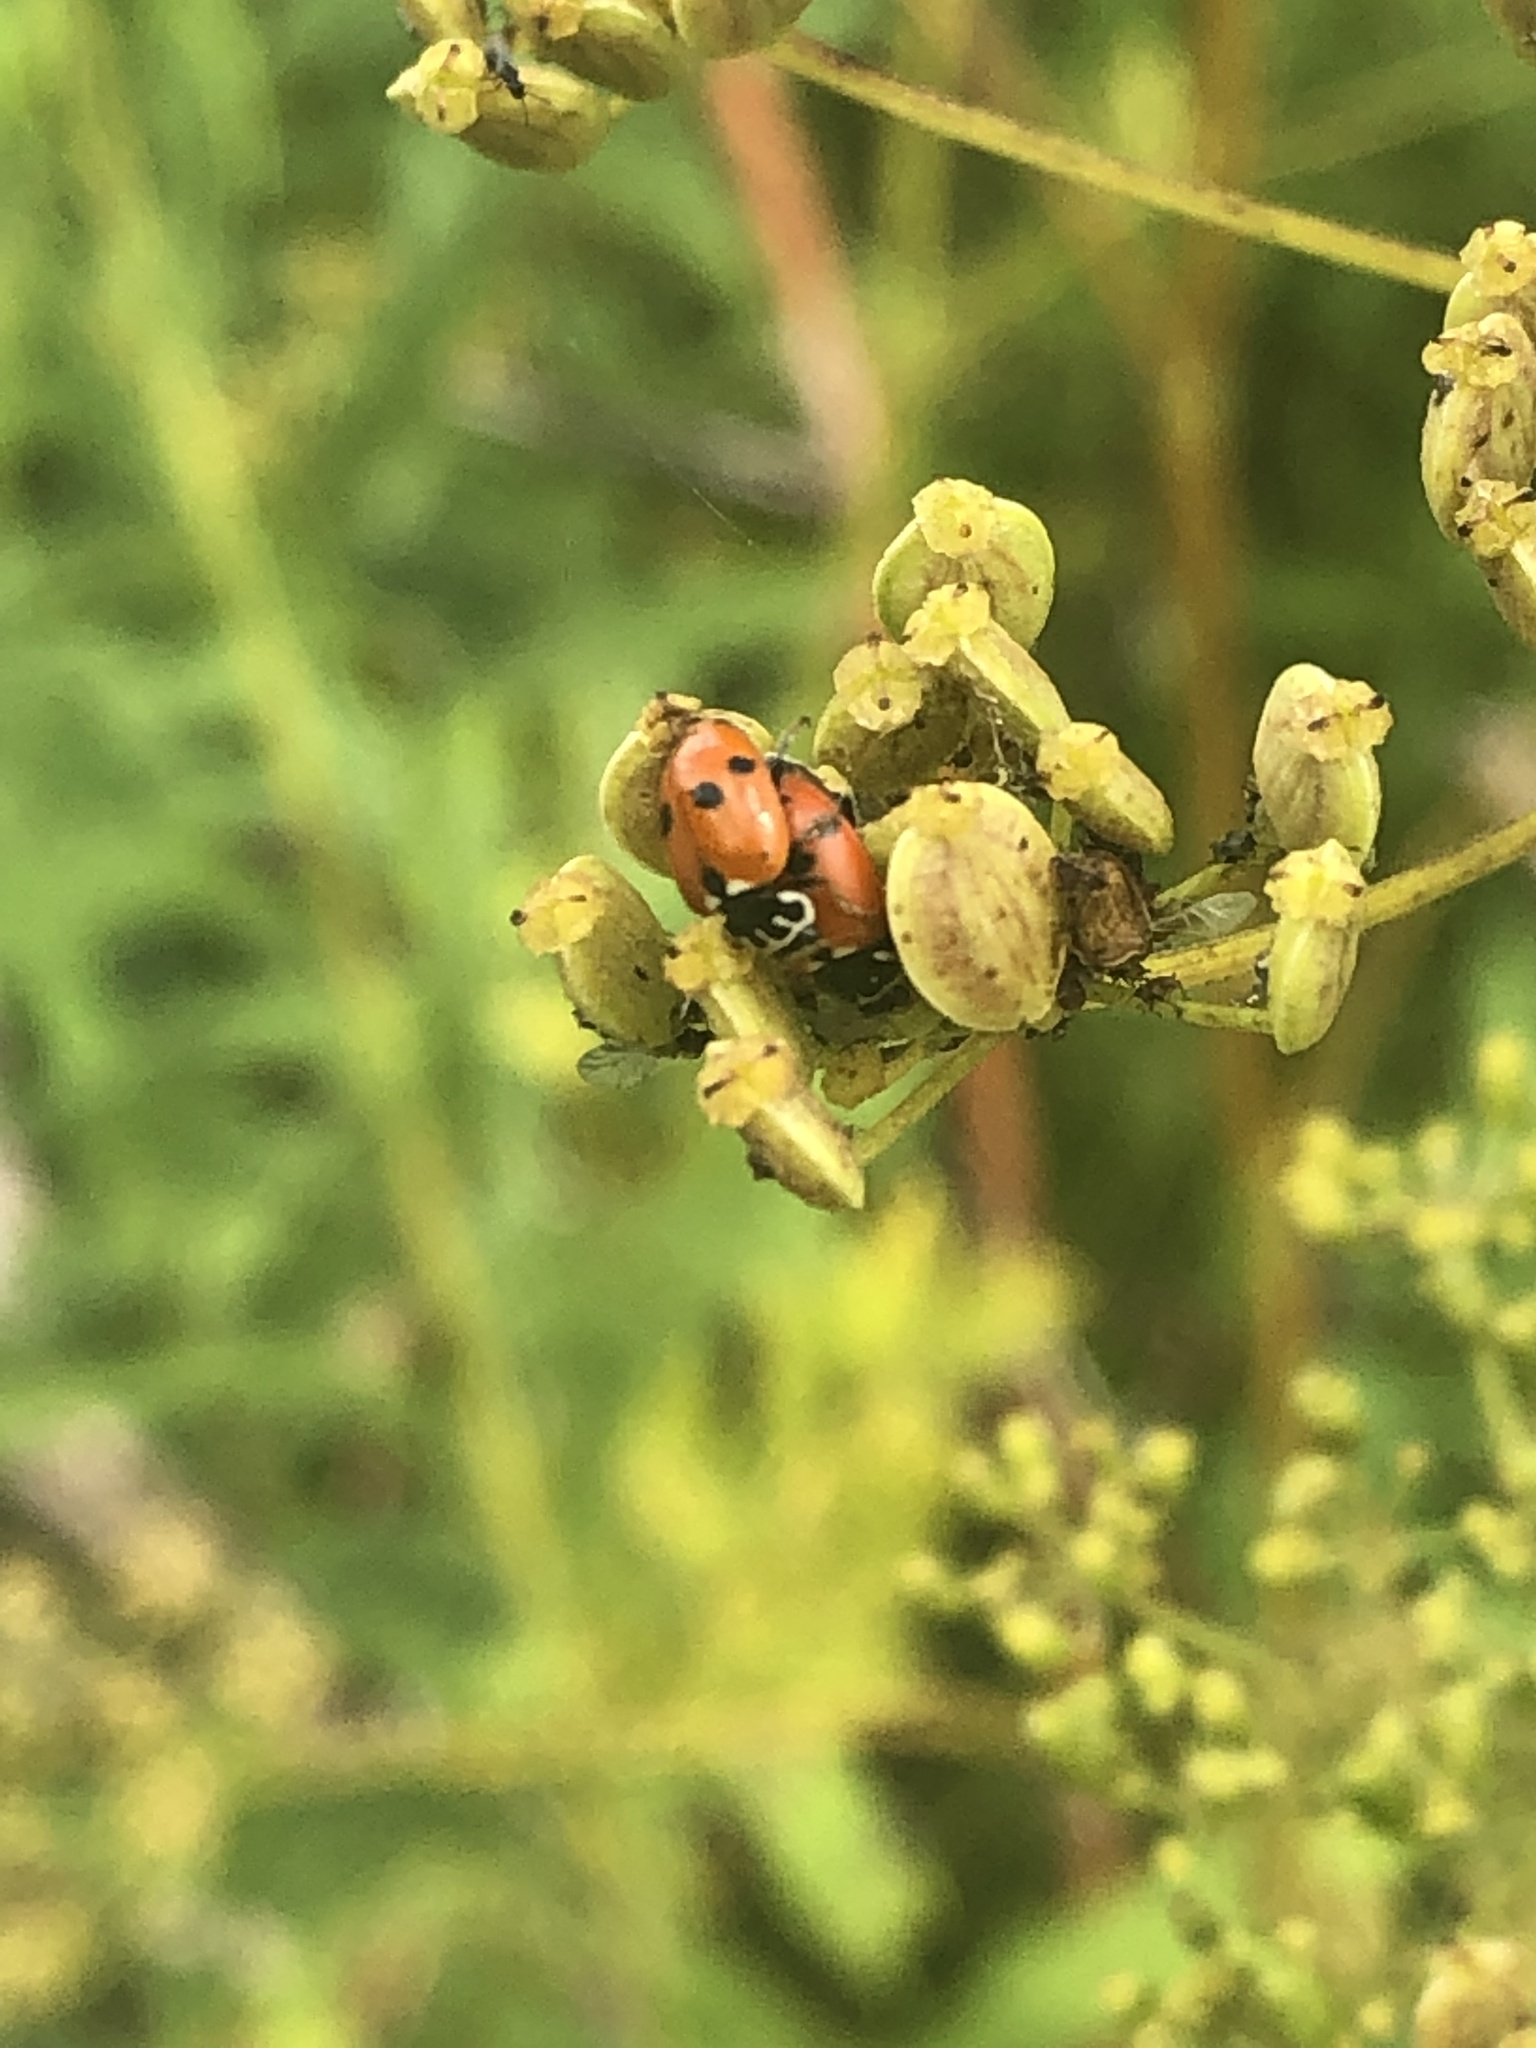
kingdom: Animalia
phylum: Arthropoda
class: Insecta
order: Coleoptera
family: Coccinellidae
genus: Hippodamia
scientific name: Hippodamia variegata
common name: Ladybird beetle
